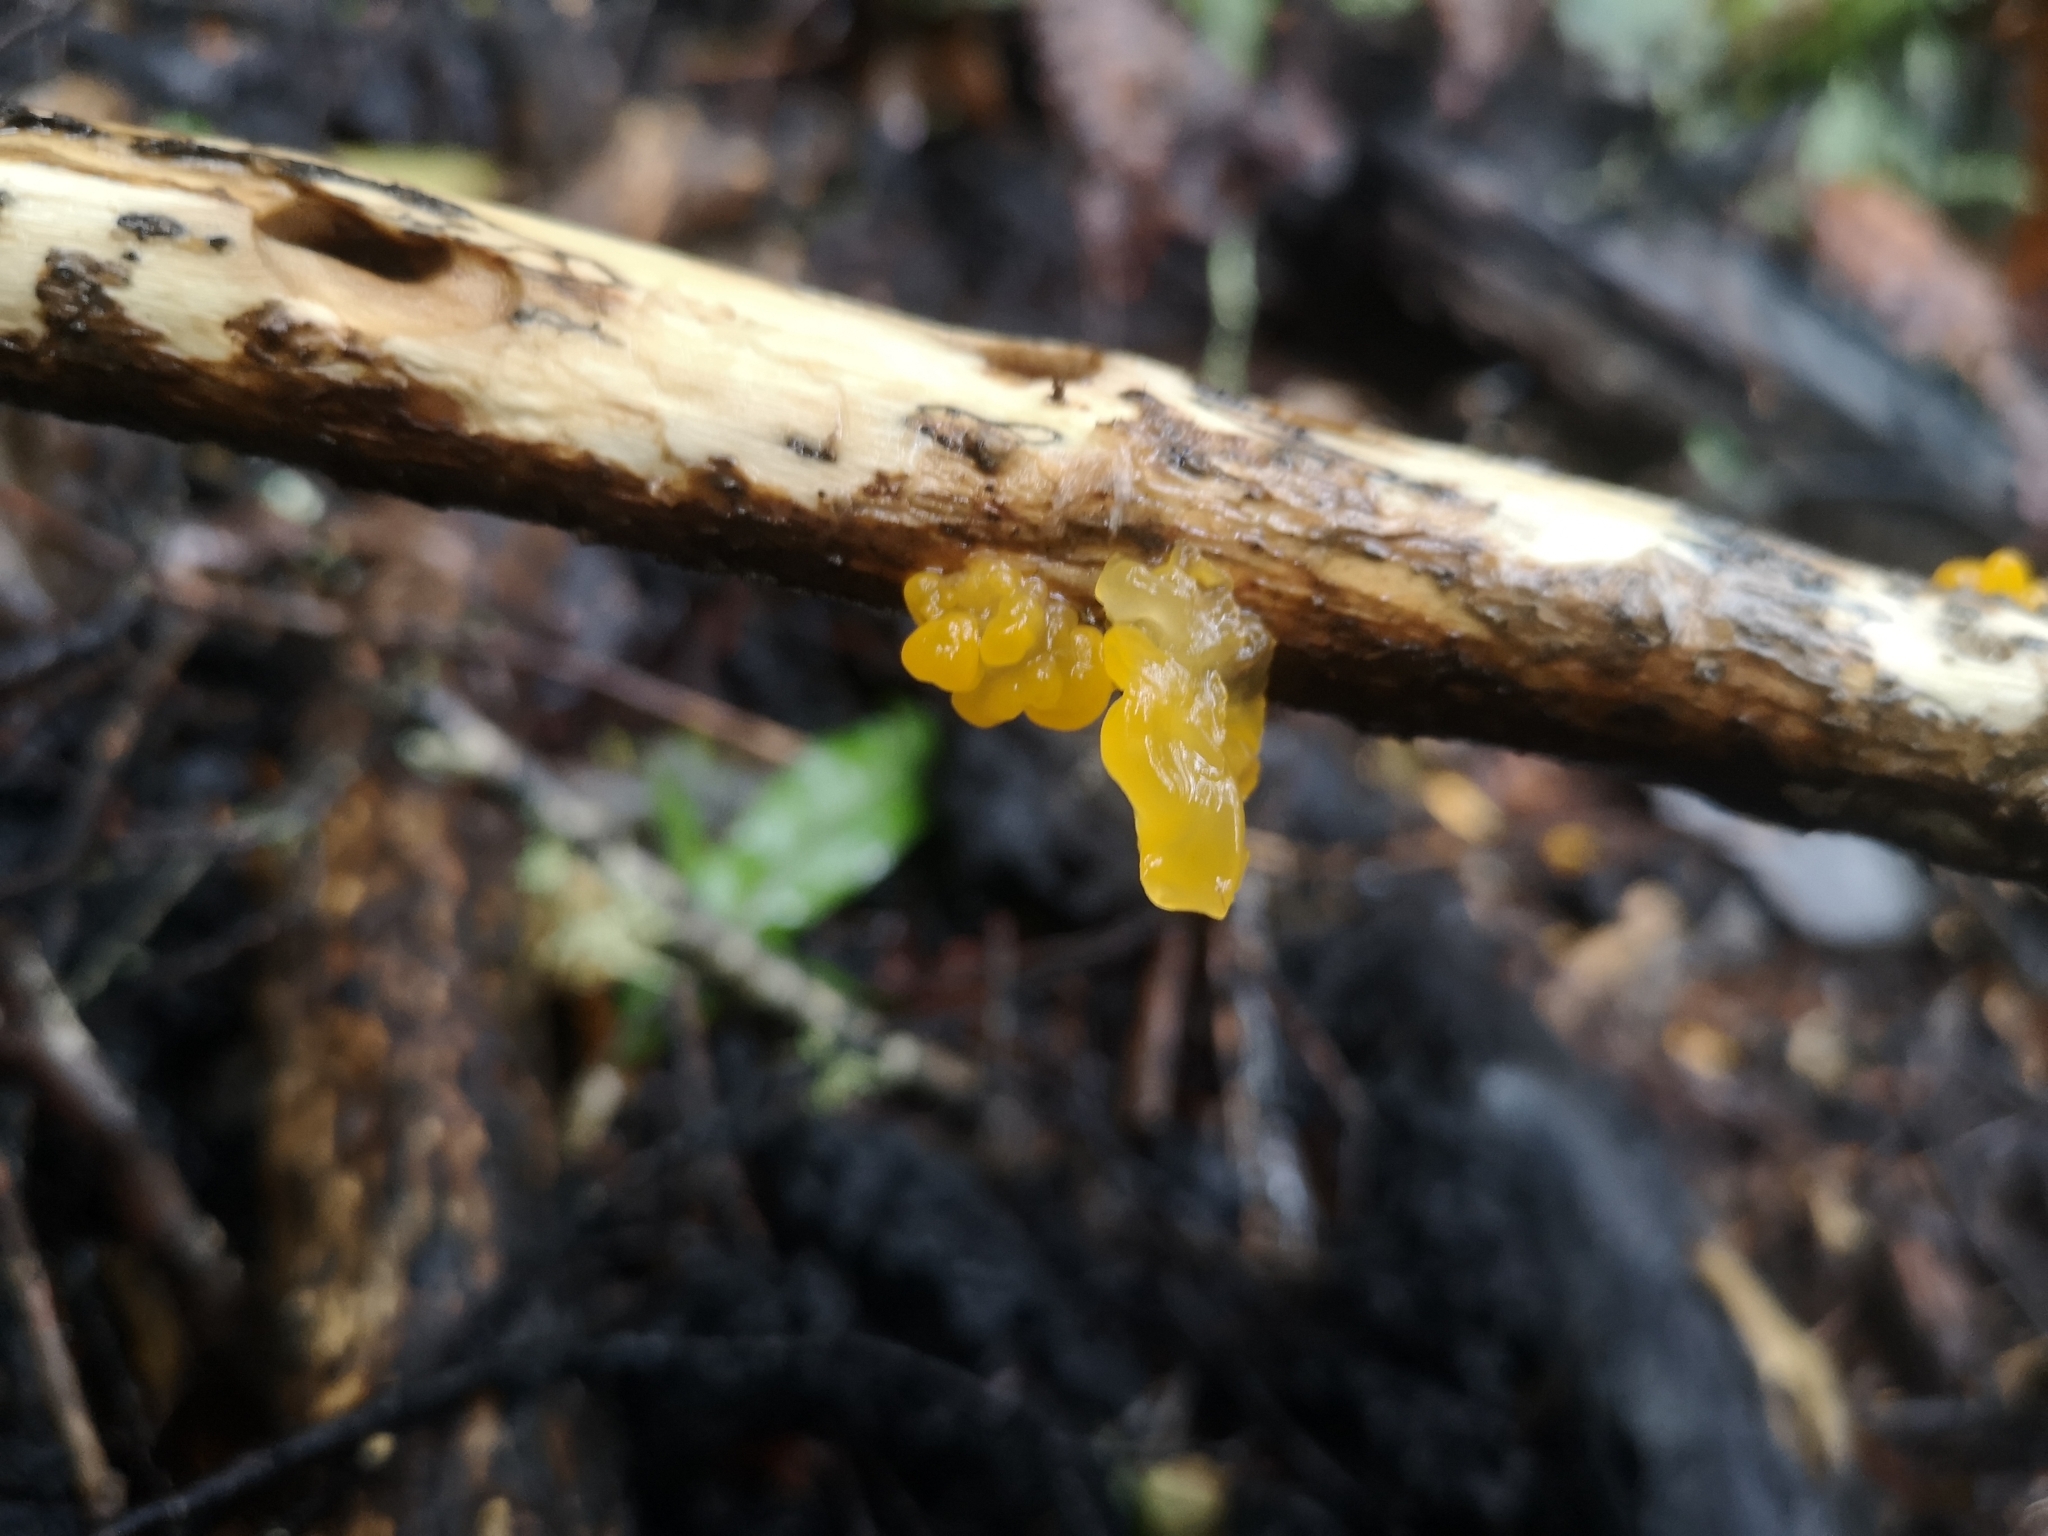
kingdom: Fungi
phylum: Basidiomycota
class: Tremellomycetes
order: Tremellales
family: Tremellaceae
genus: Tremella
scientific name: Tremella mesenterica
